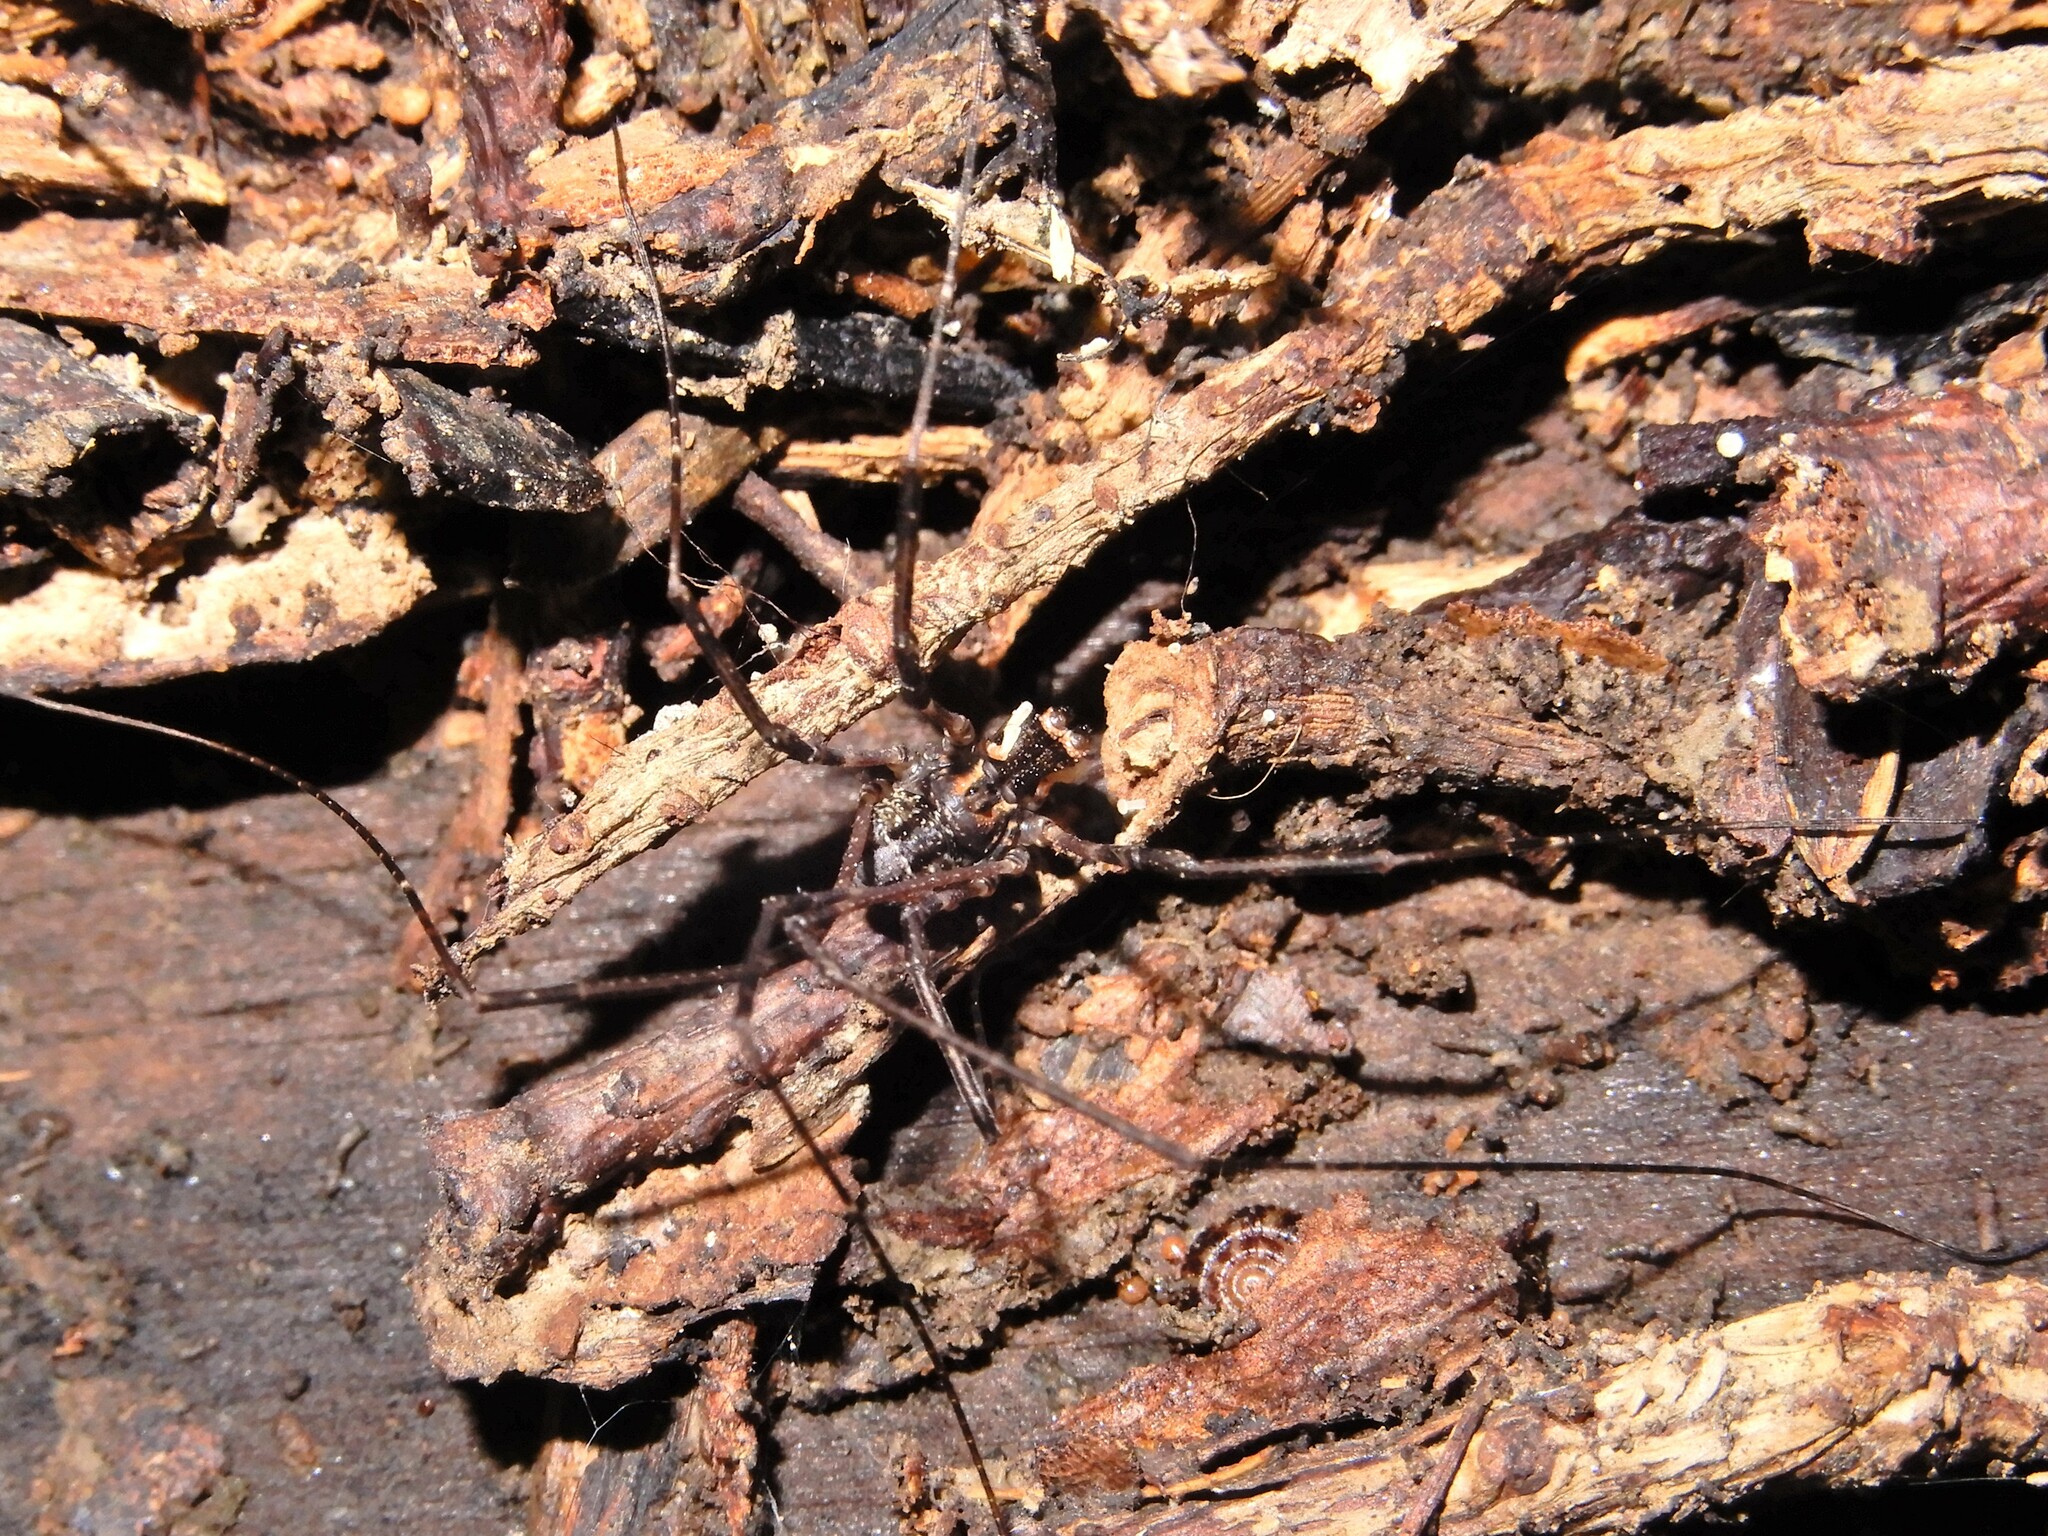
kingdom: Animalia
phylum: Arthropoda
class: Arachnida
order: Opiliones
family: Neopilionidae
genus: Forsteropsalis
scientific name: Forsteropsalis inconstans
